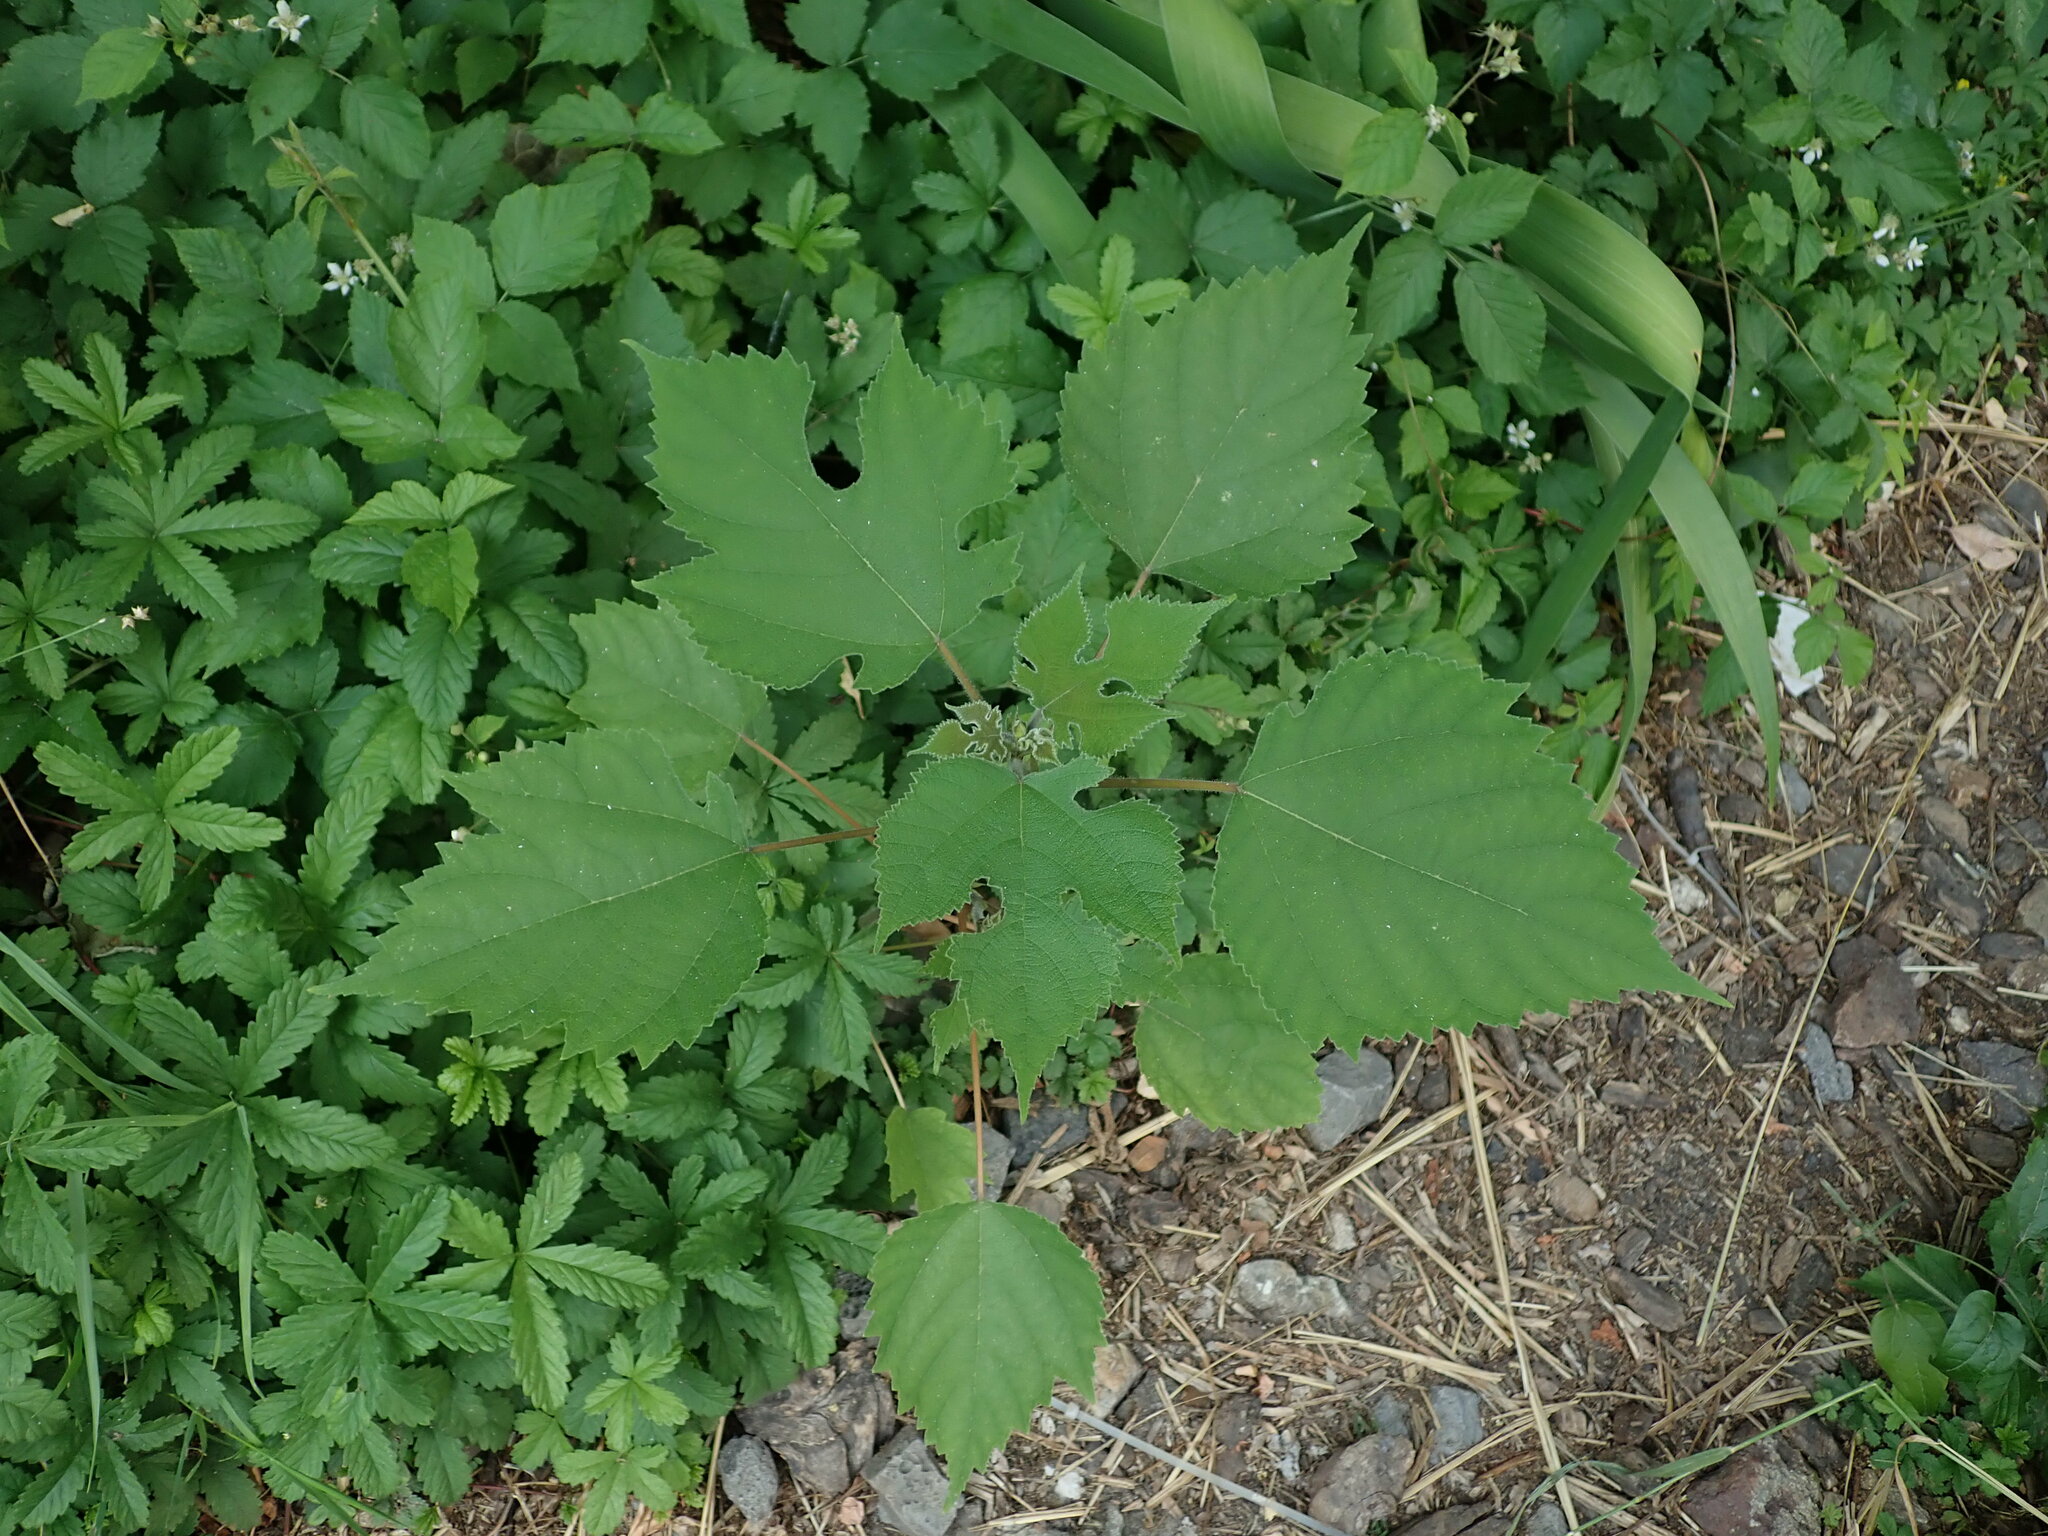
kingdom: Plantae
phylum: Tracheophyta
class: Magnoliopsida
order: Rosales
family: Moraceae
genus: Broussonetia
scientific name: Broussonetia papyrifera
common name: Paper mulberry
